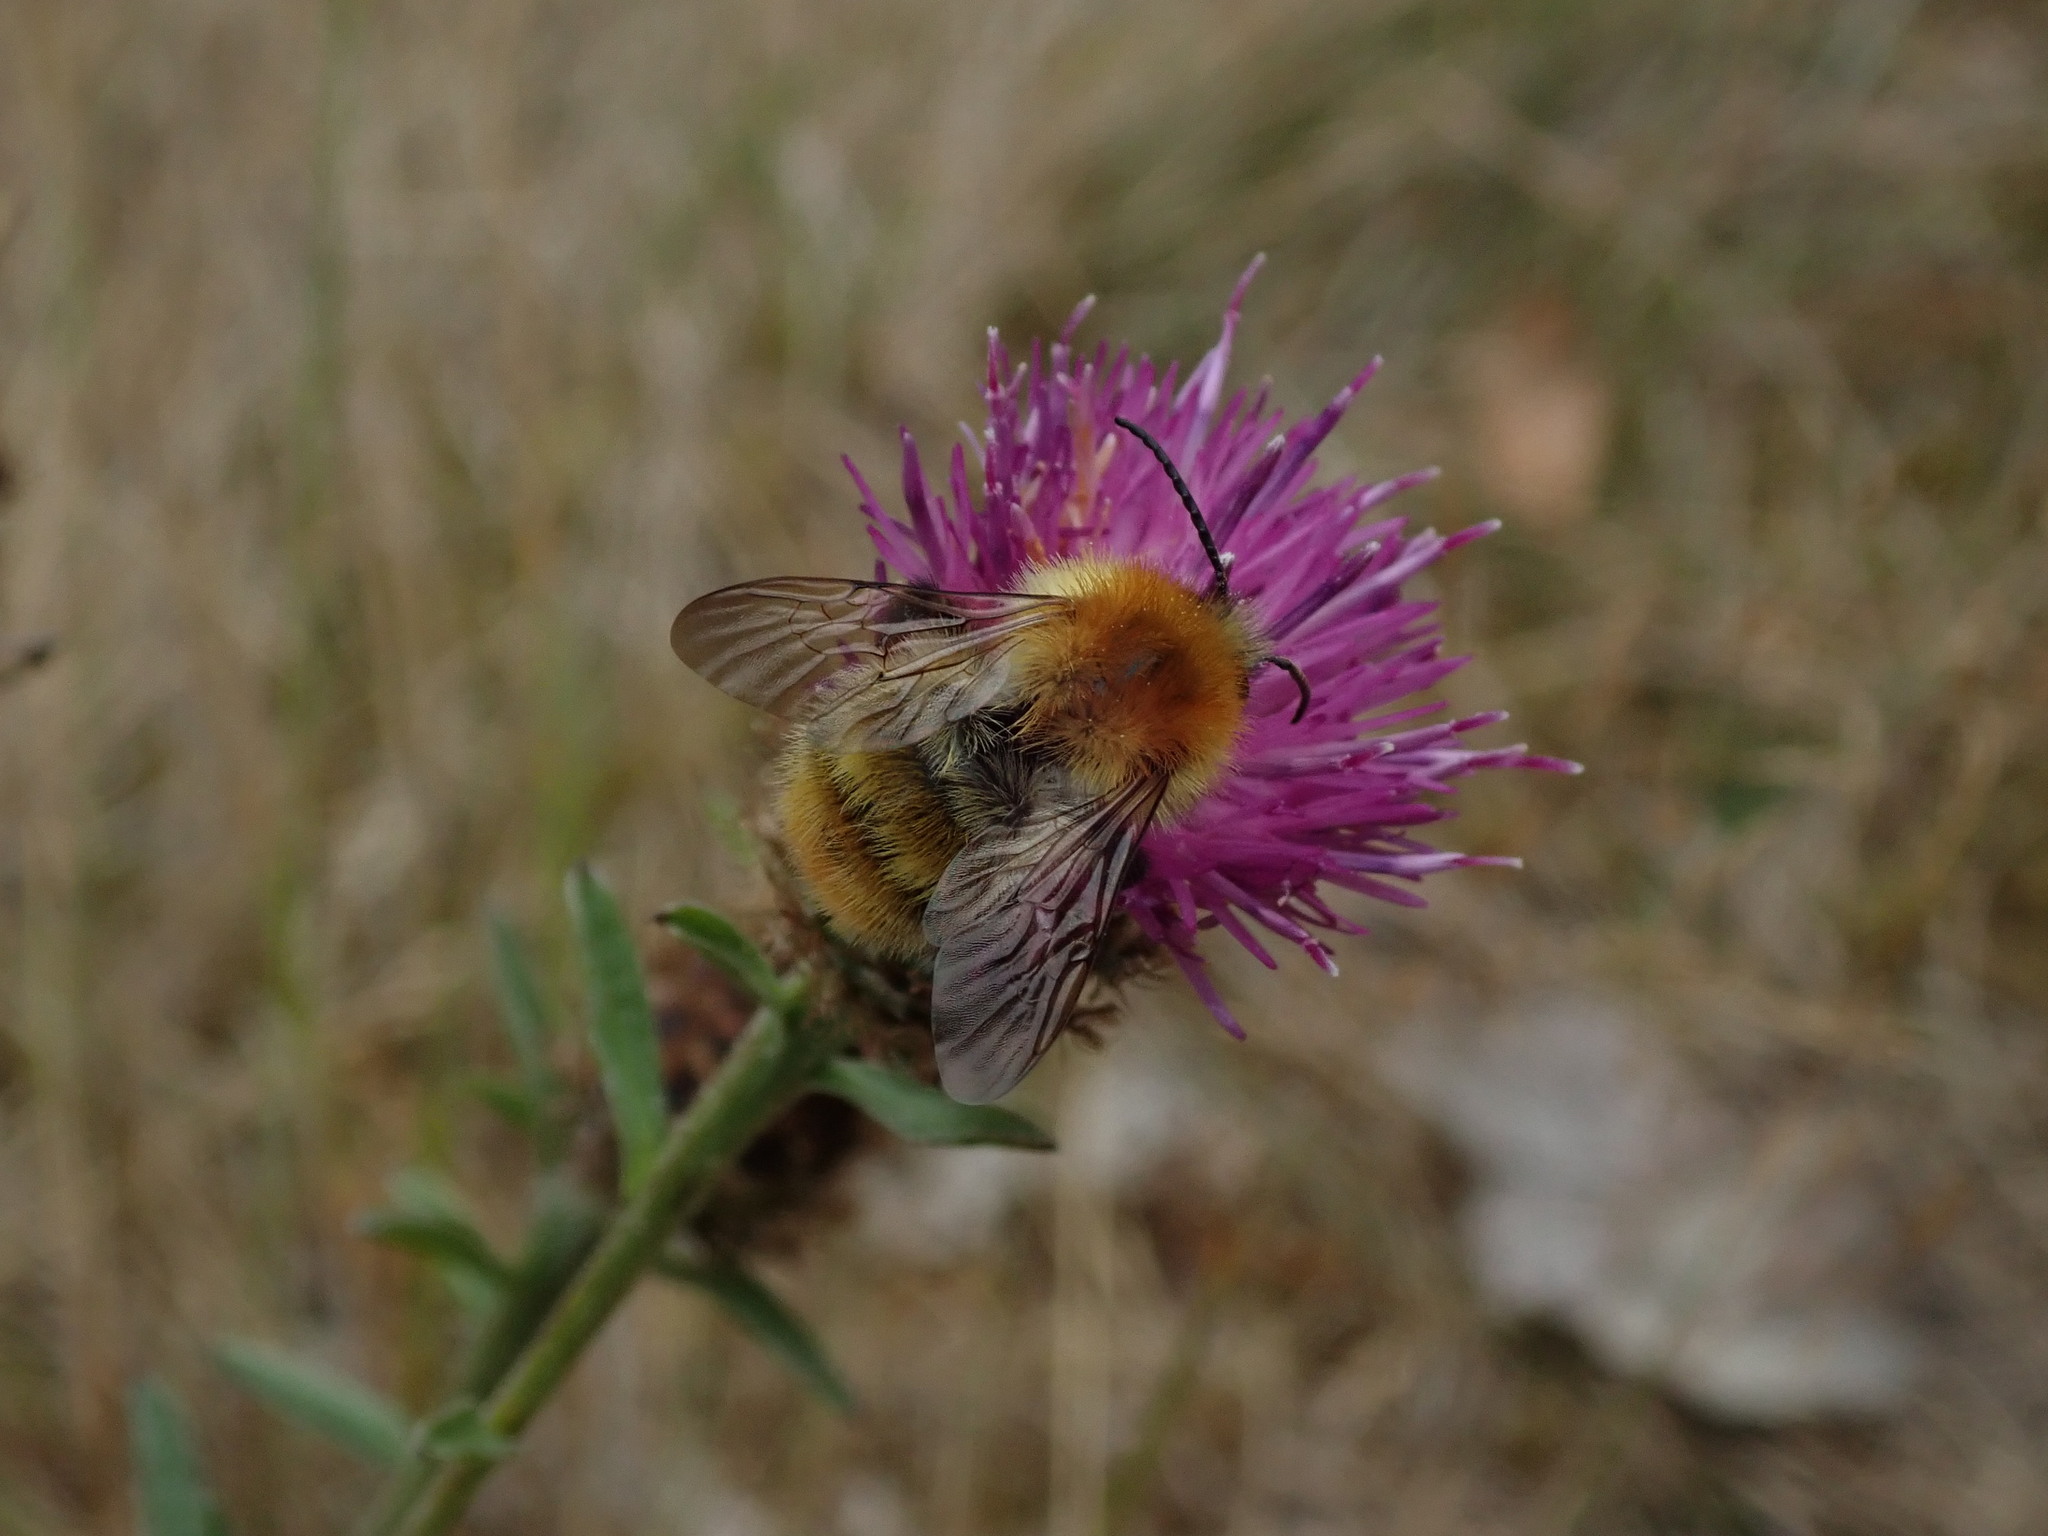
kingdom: Animalia
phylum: Arthropoda
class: Insecta
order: Hymenoptera
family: Apidae
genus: Bombus
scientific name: Bombus pascuorum
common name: Common carder bee
